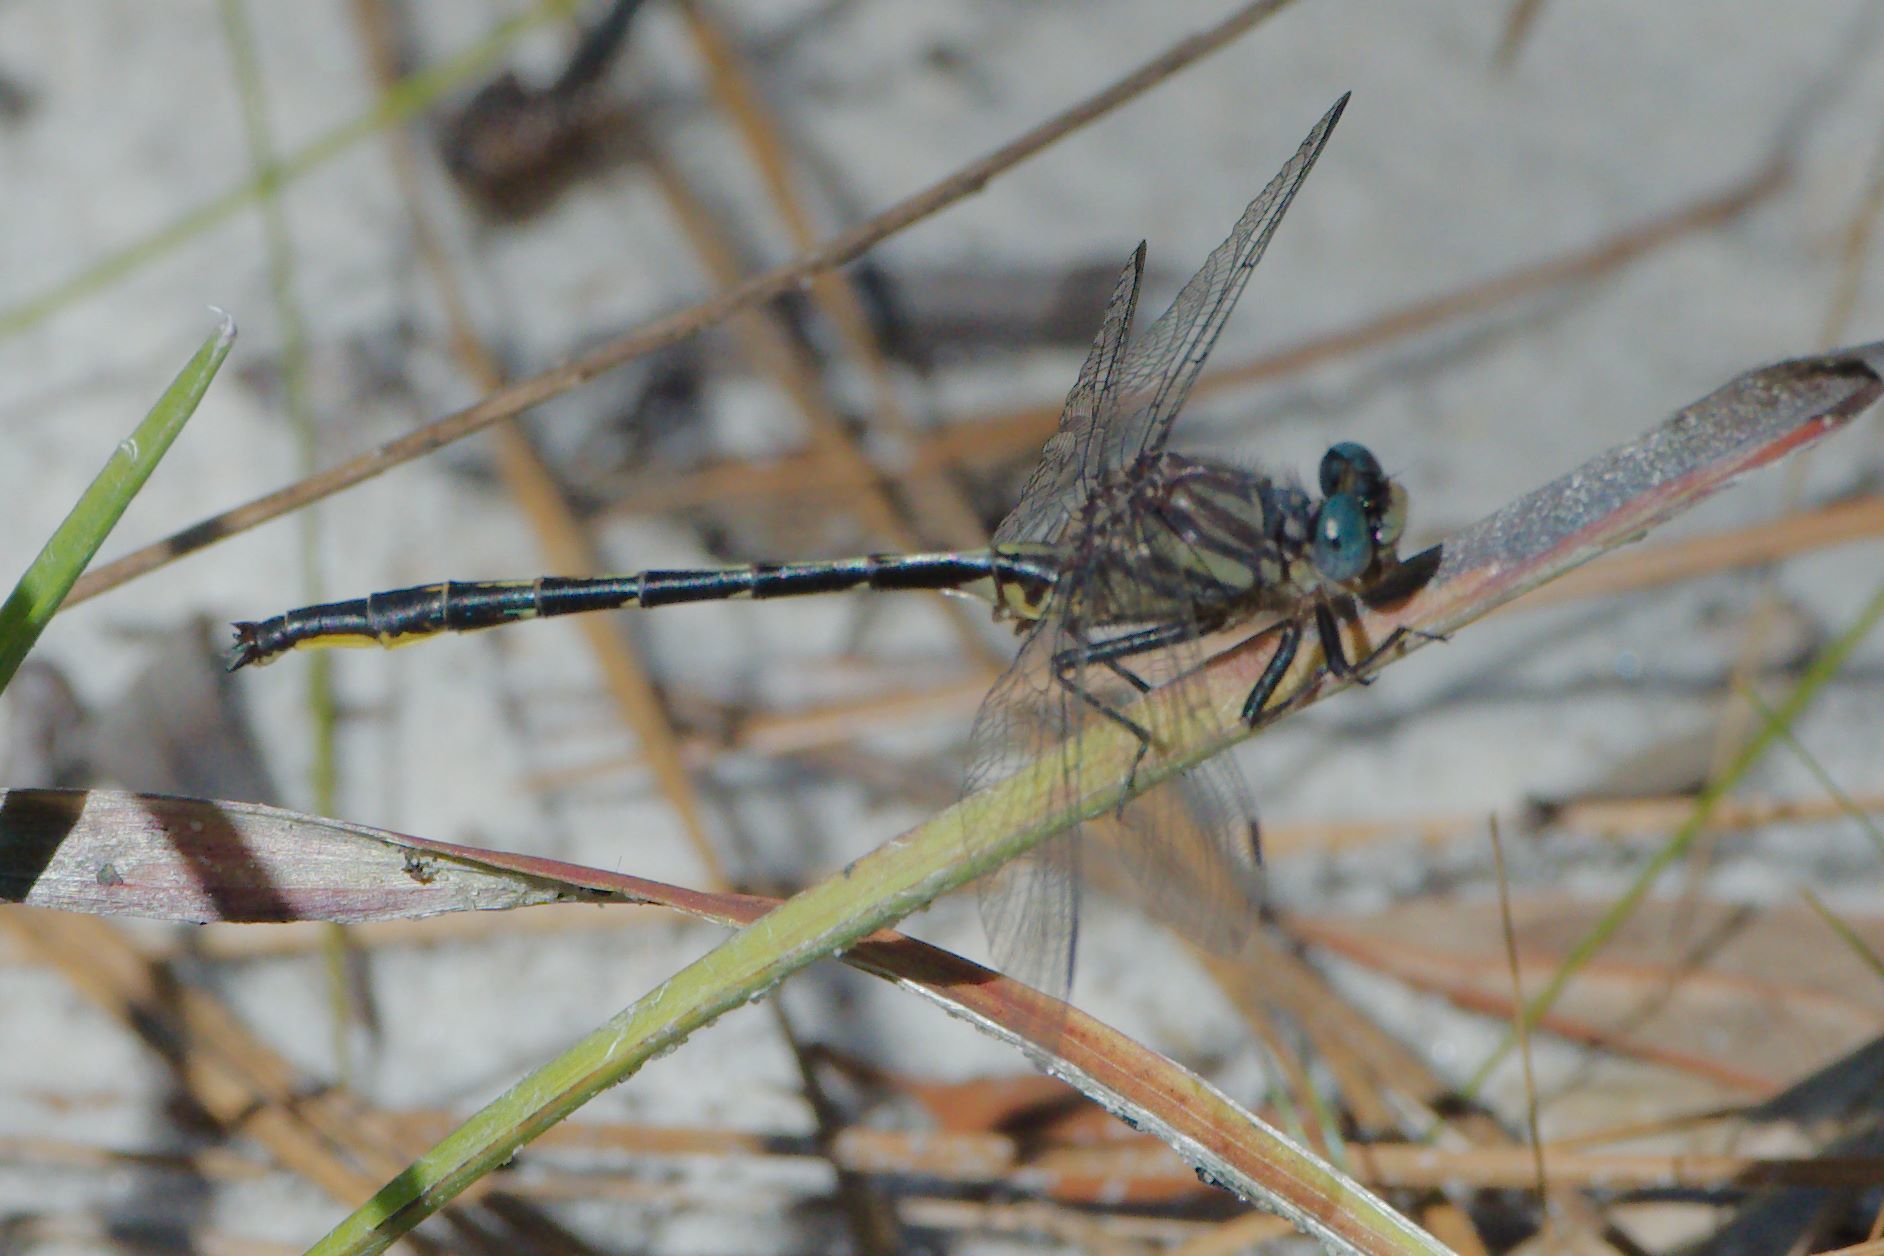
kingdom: Animalia
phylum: Arthropoda
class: Insecta
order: Odonata
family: Gomphidae
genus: Phanogomphus
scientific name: Phanogomphus westfalli
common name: Westfall’s clubtail
